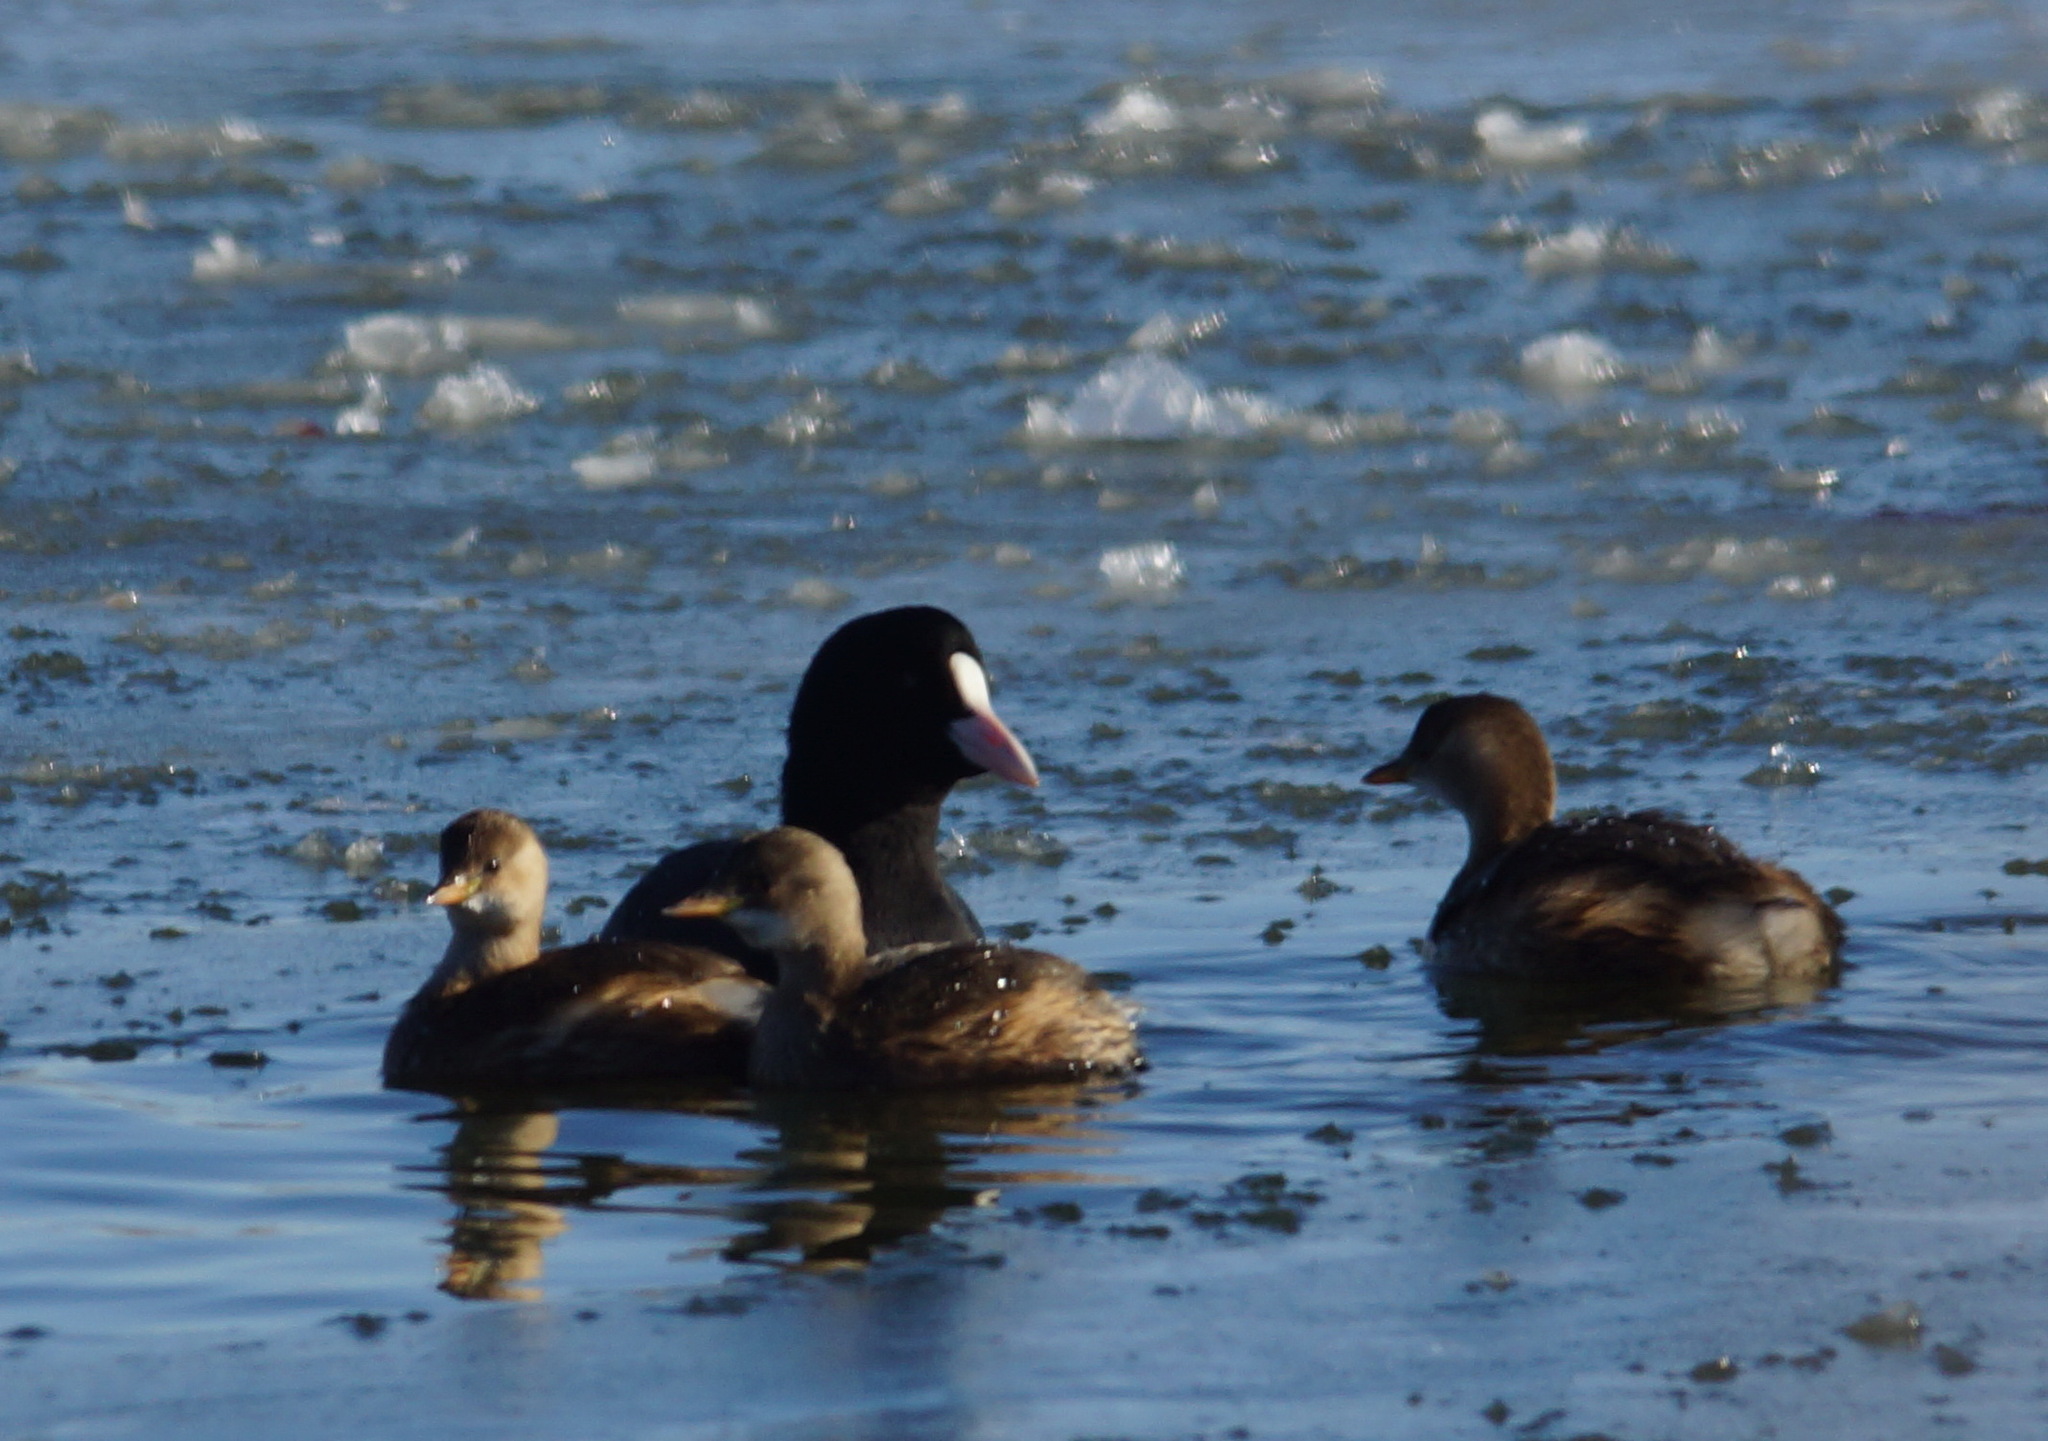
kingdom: Animalia
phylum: Chordata
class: Aves
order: Gruiformes
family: Rallidae
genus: Fulica
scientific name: Fulica atra
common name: Eurasian coot
